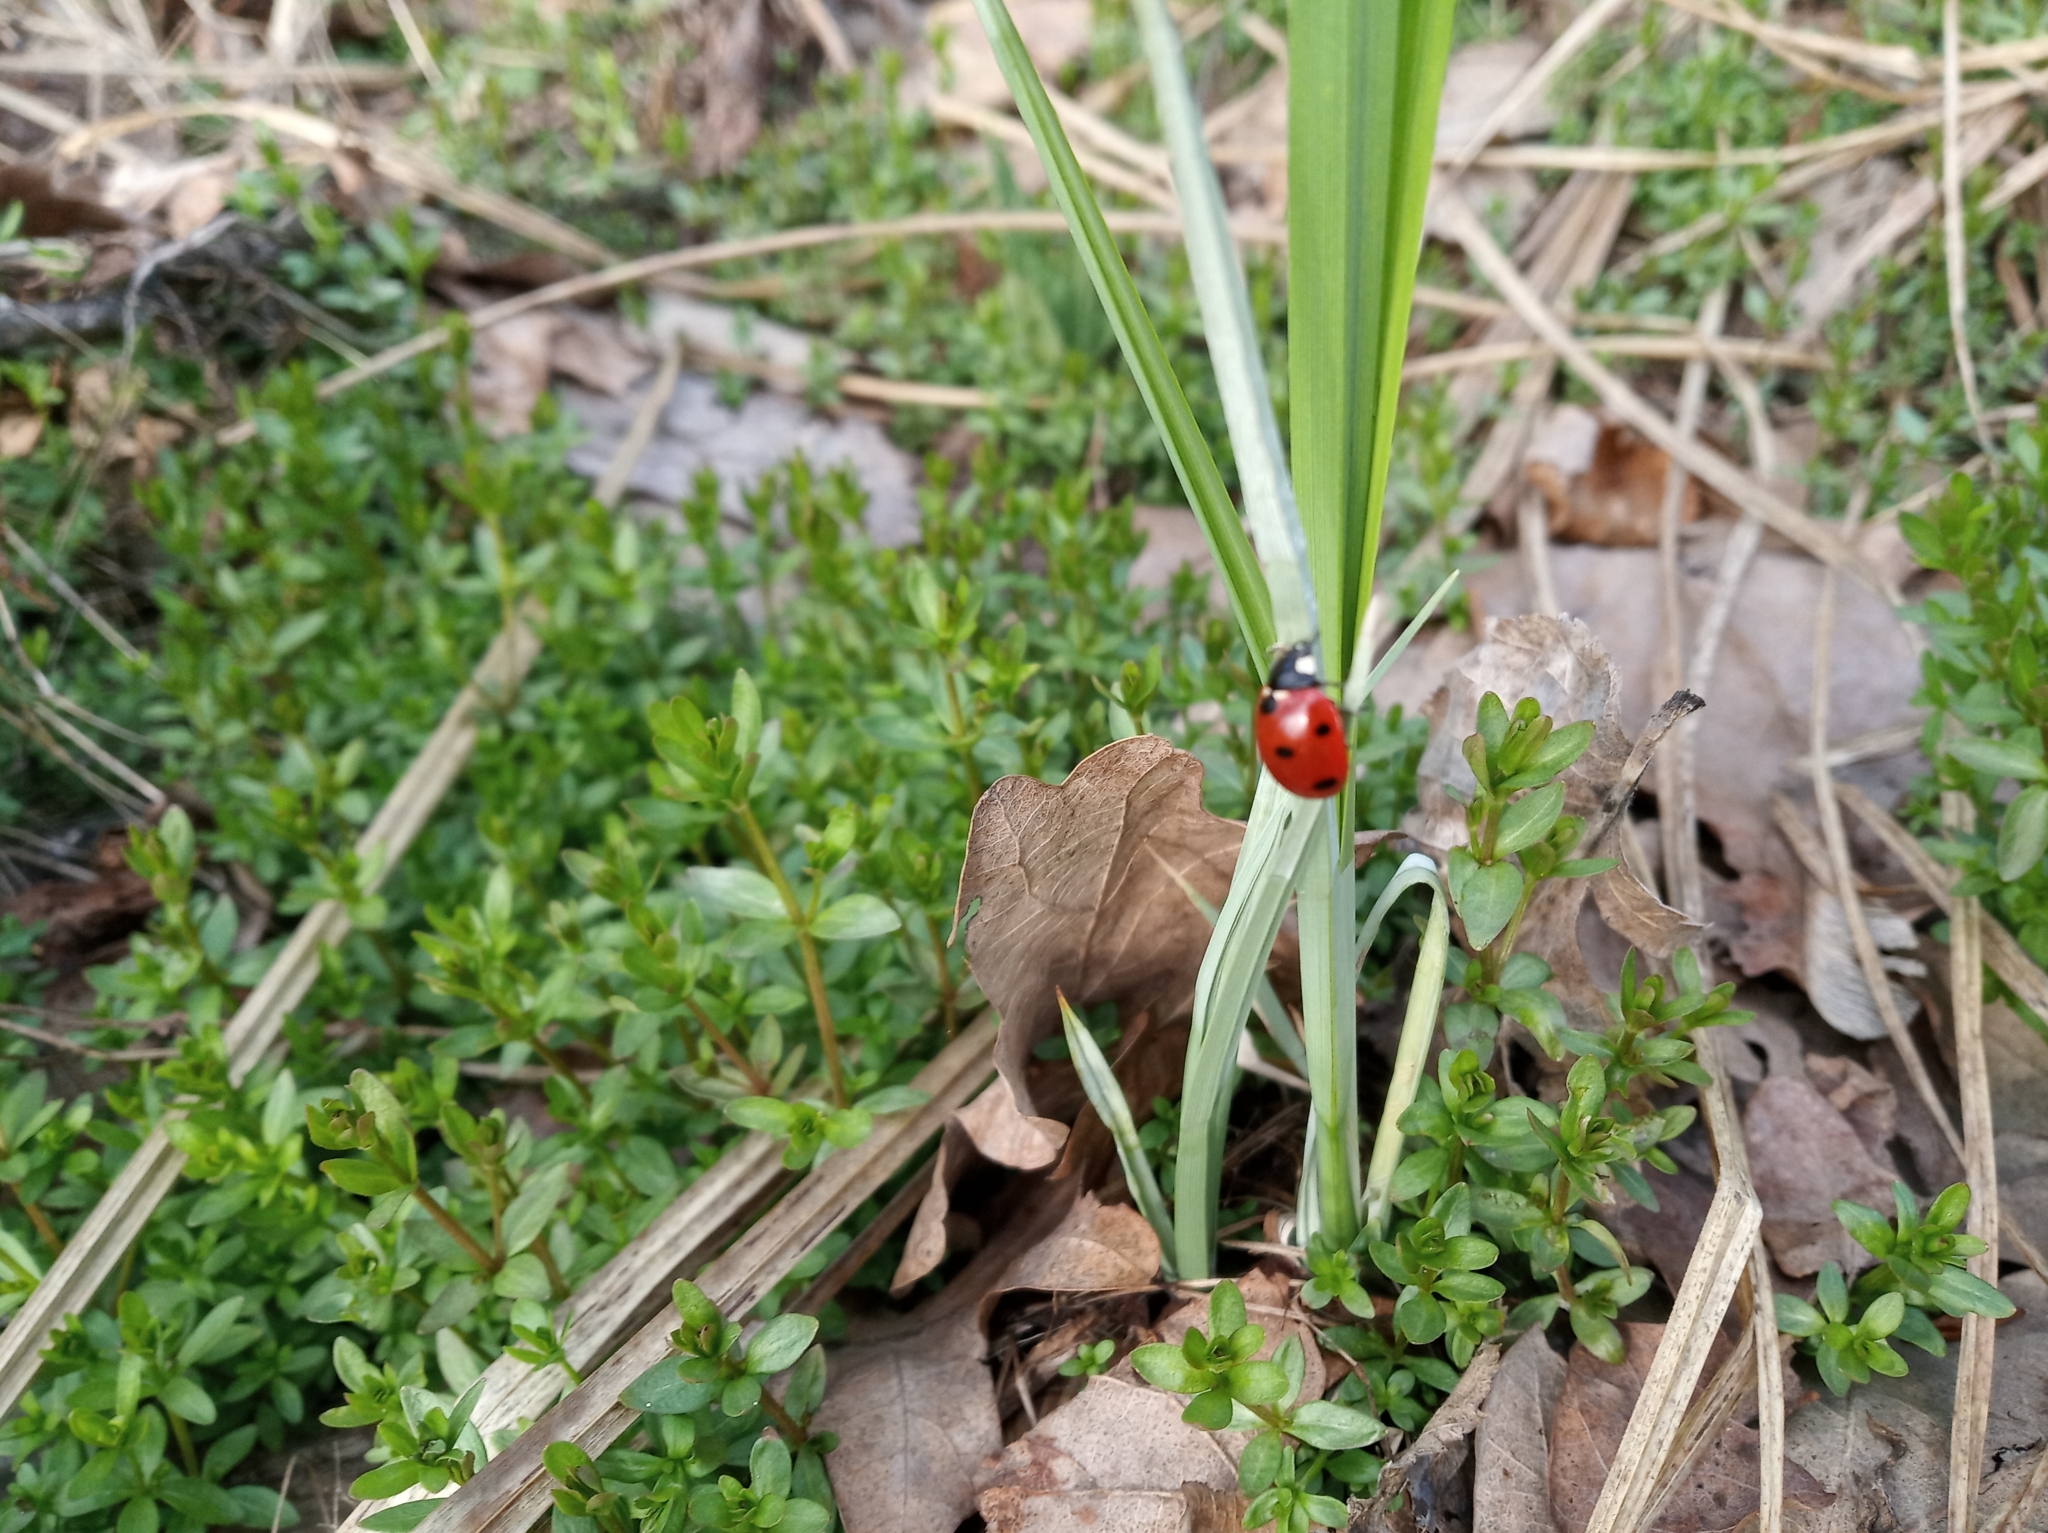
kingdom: Animalia
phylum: Arthropoda
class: Insecta
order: Coleoptera
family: Coccinellidae
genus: Coccinella
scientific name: Coccinella septempunctata
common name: Sevenspotted lady beetle
